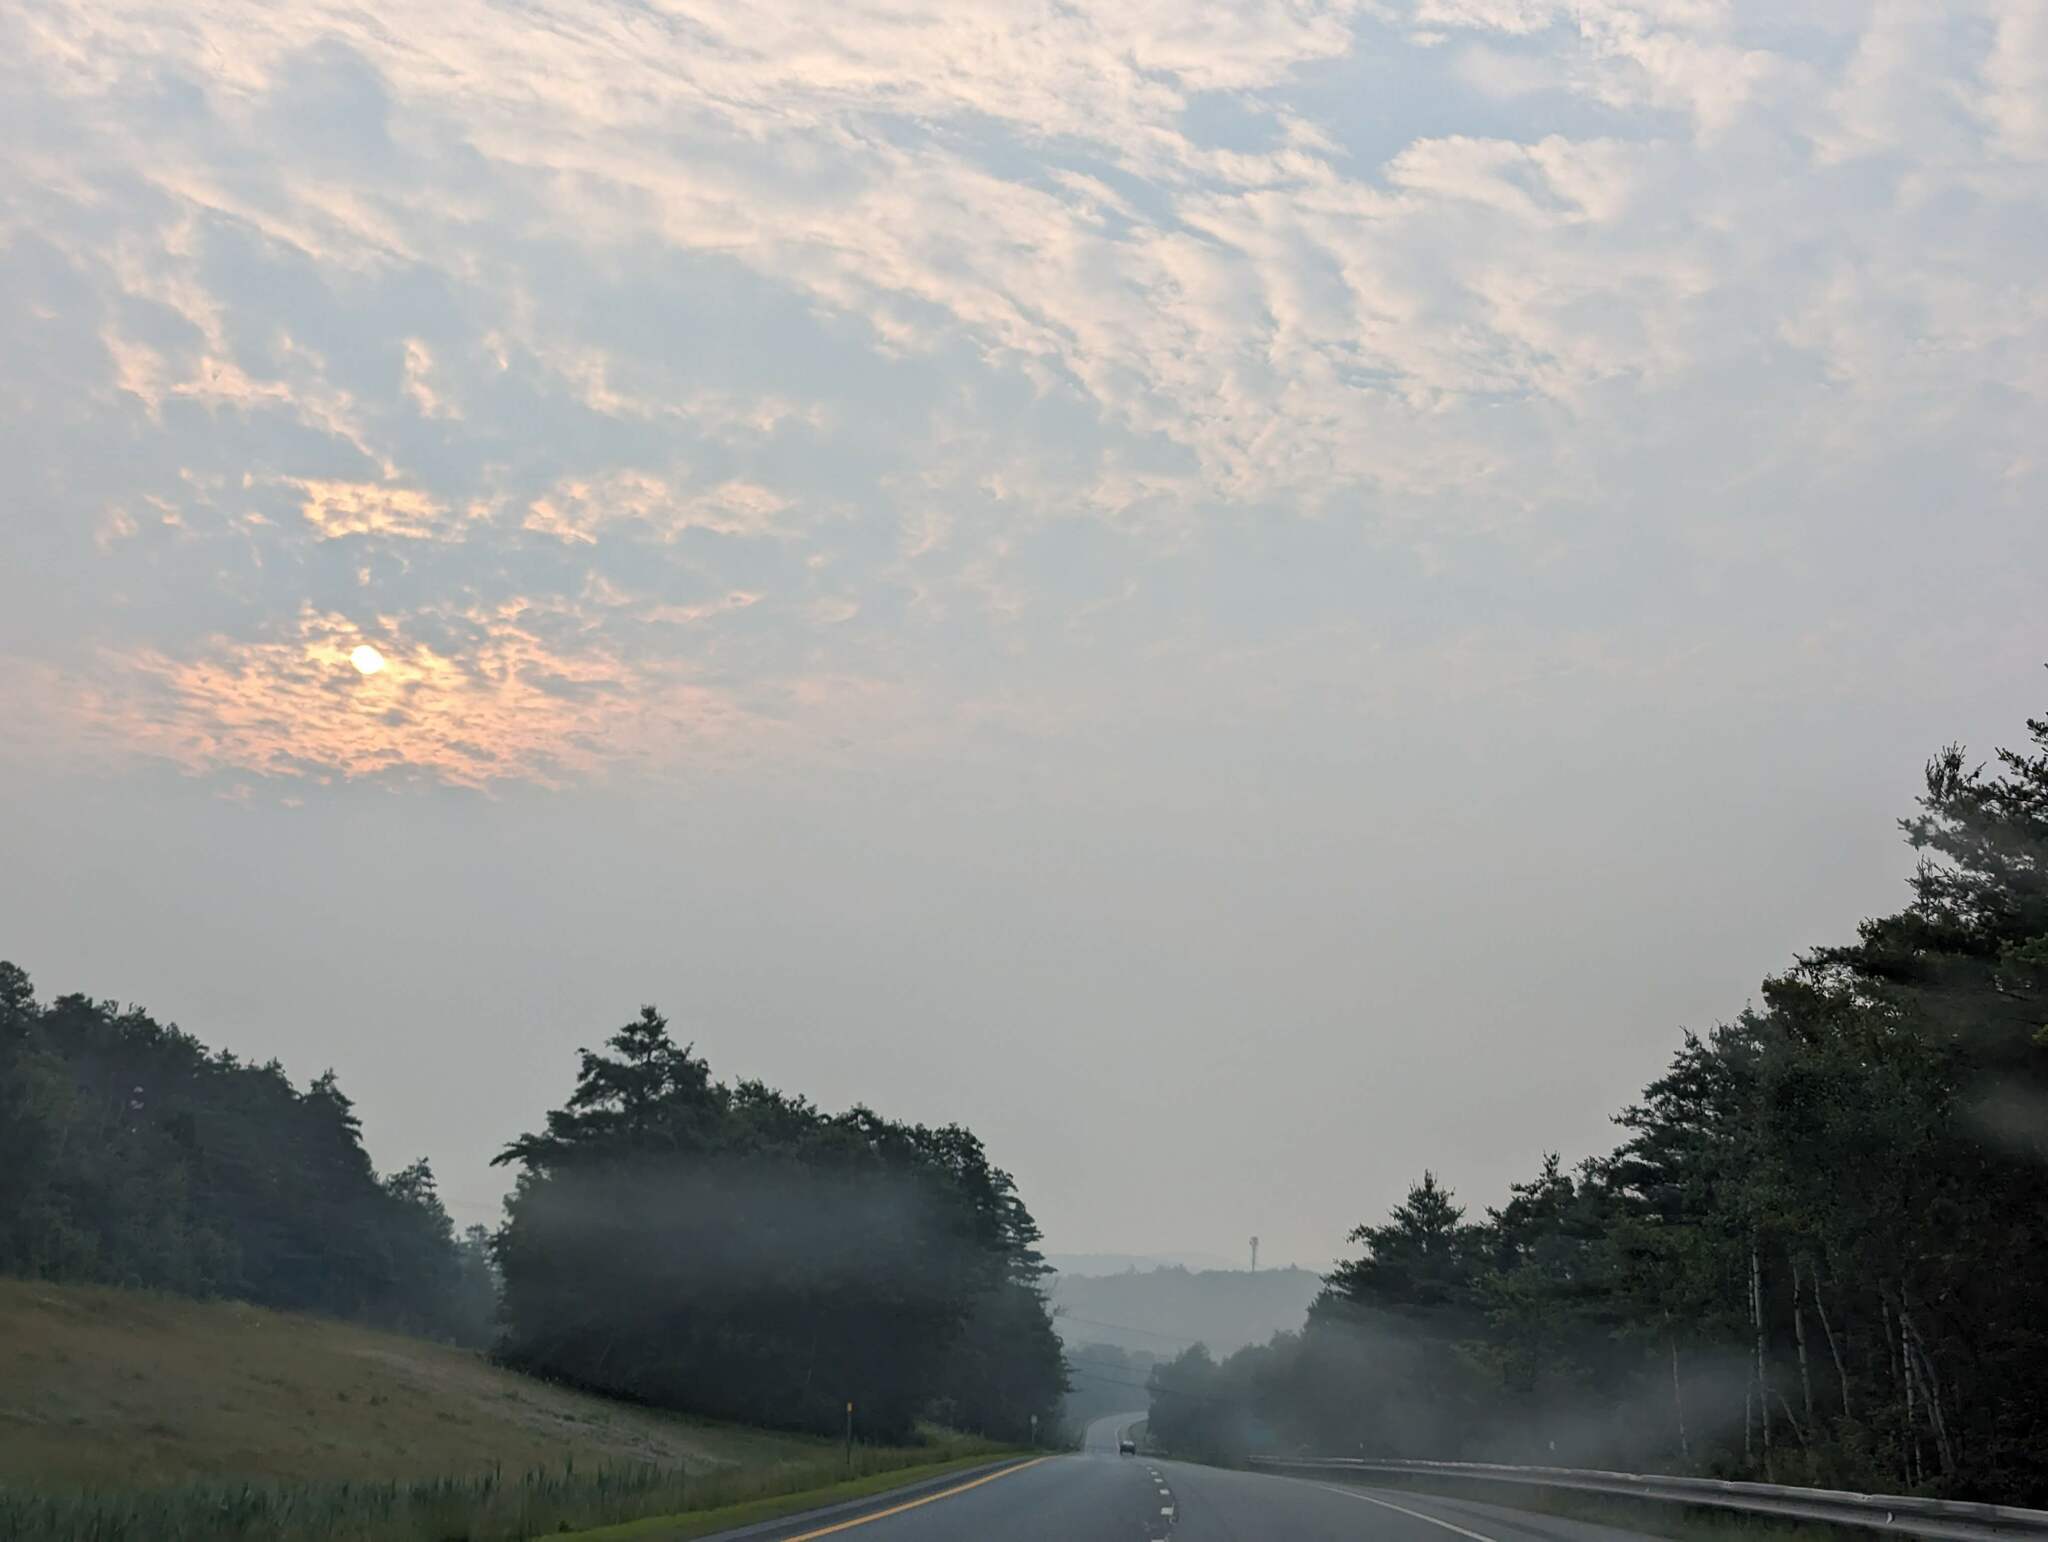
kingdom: Plantae
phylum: Tracheophyta
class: Pinopsida
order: Pinales
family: Pinaceae
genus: Pinus
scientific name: Pinus strobus
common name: Weymouth pine
